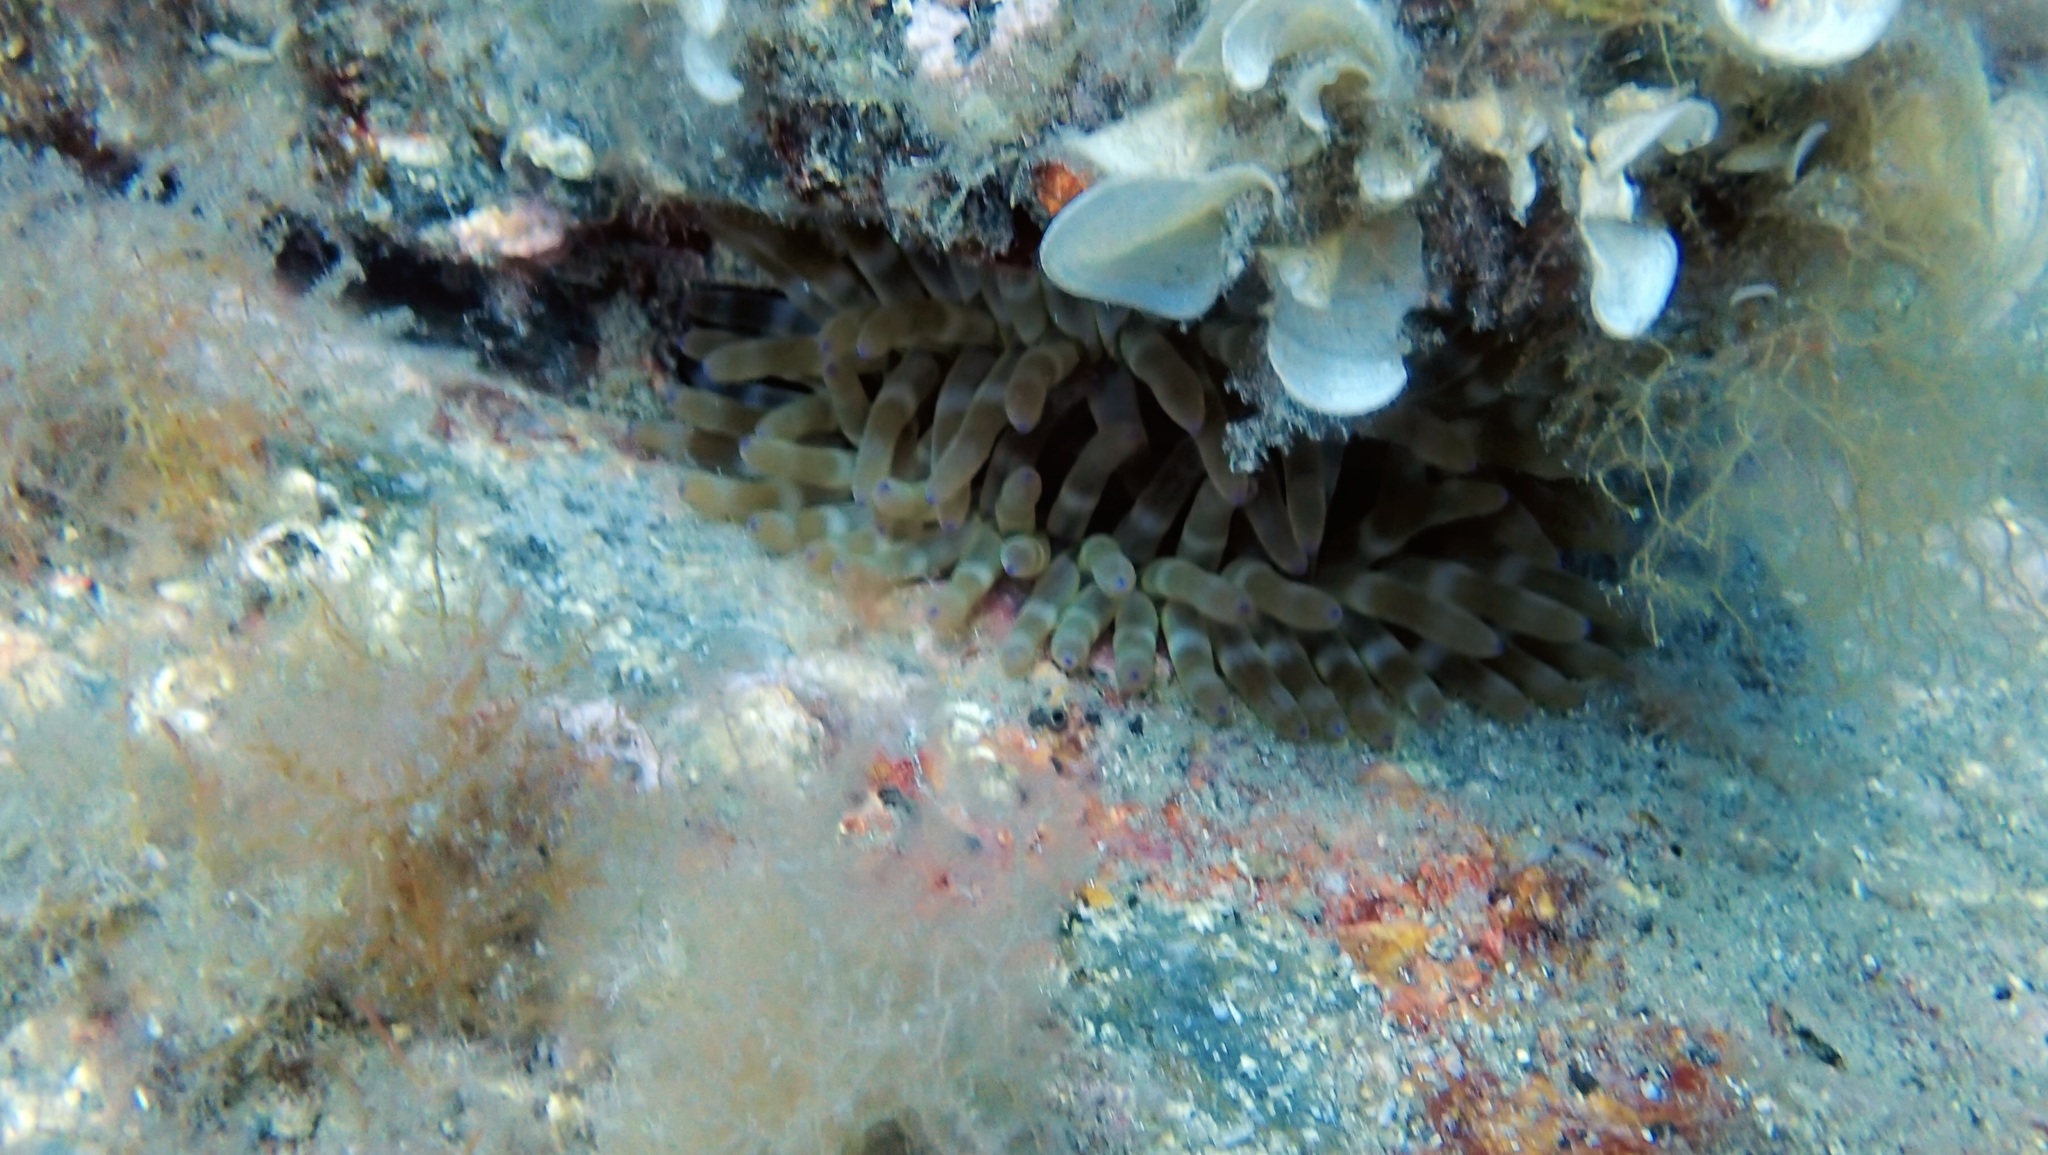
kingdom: Animalia
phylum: Cnidaria
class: Anthozoa
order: Actiniaria
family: Actiniidae
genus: Cribrinopsis
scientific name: Cribrinopsis crassa
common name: Fat anemone
